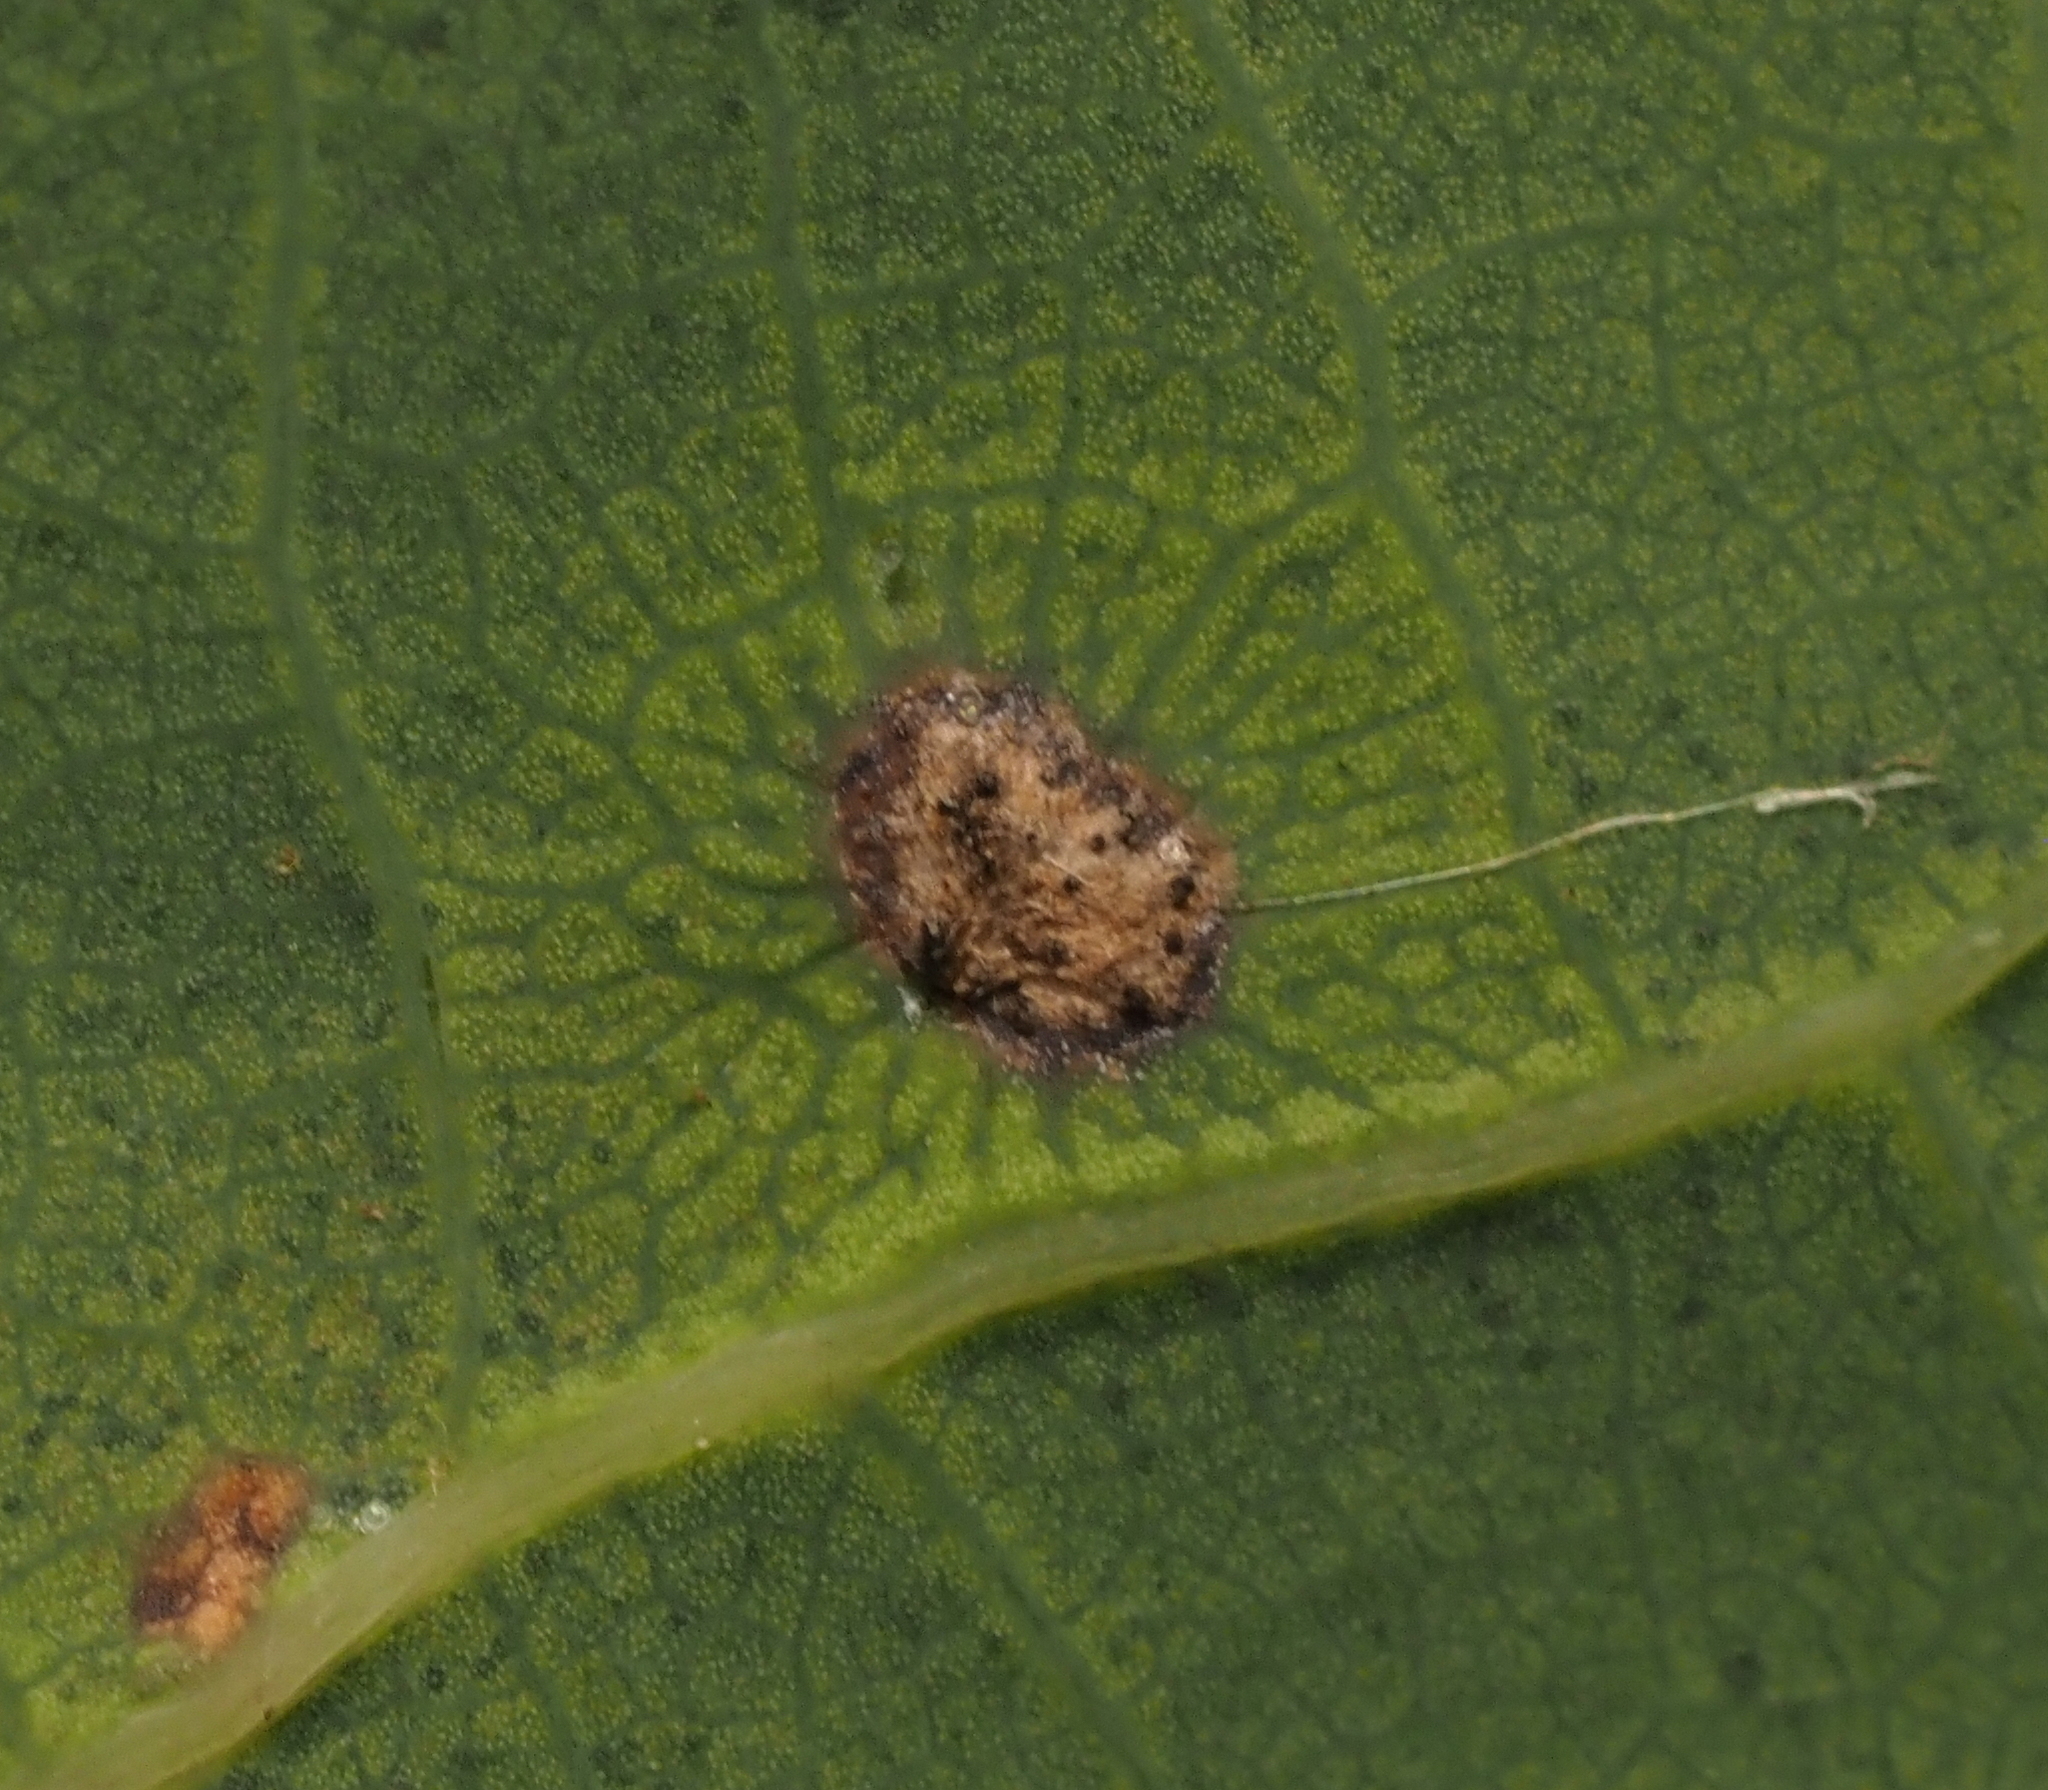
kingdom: Animalia
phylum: Arthropoda
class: Insecta
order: Hymenoptera
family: Cynipidae
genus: Neuroterus
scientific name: Neuroterus quercusverrucarum
